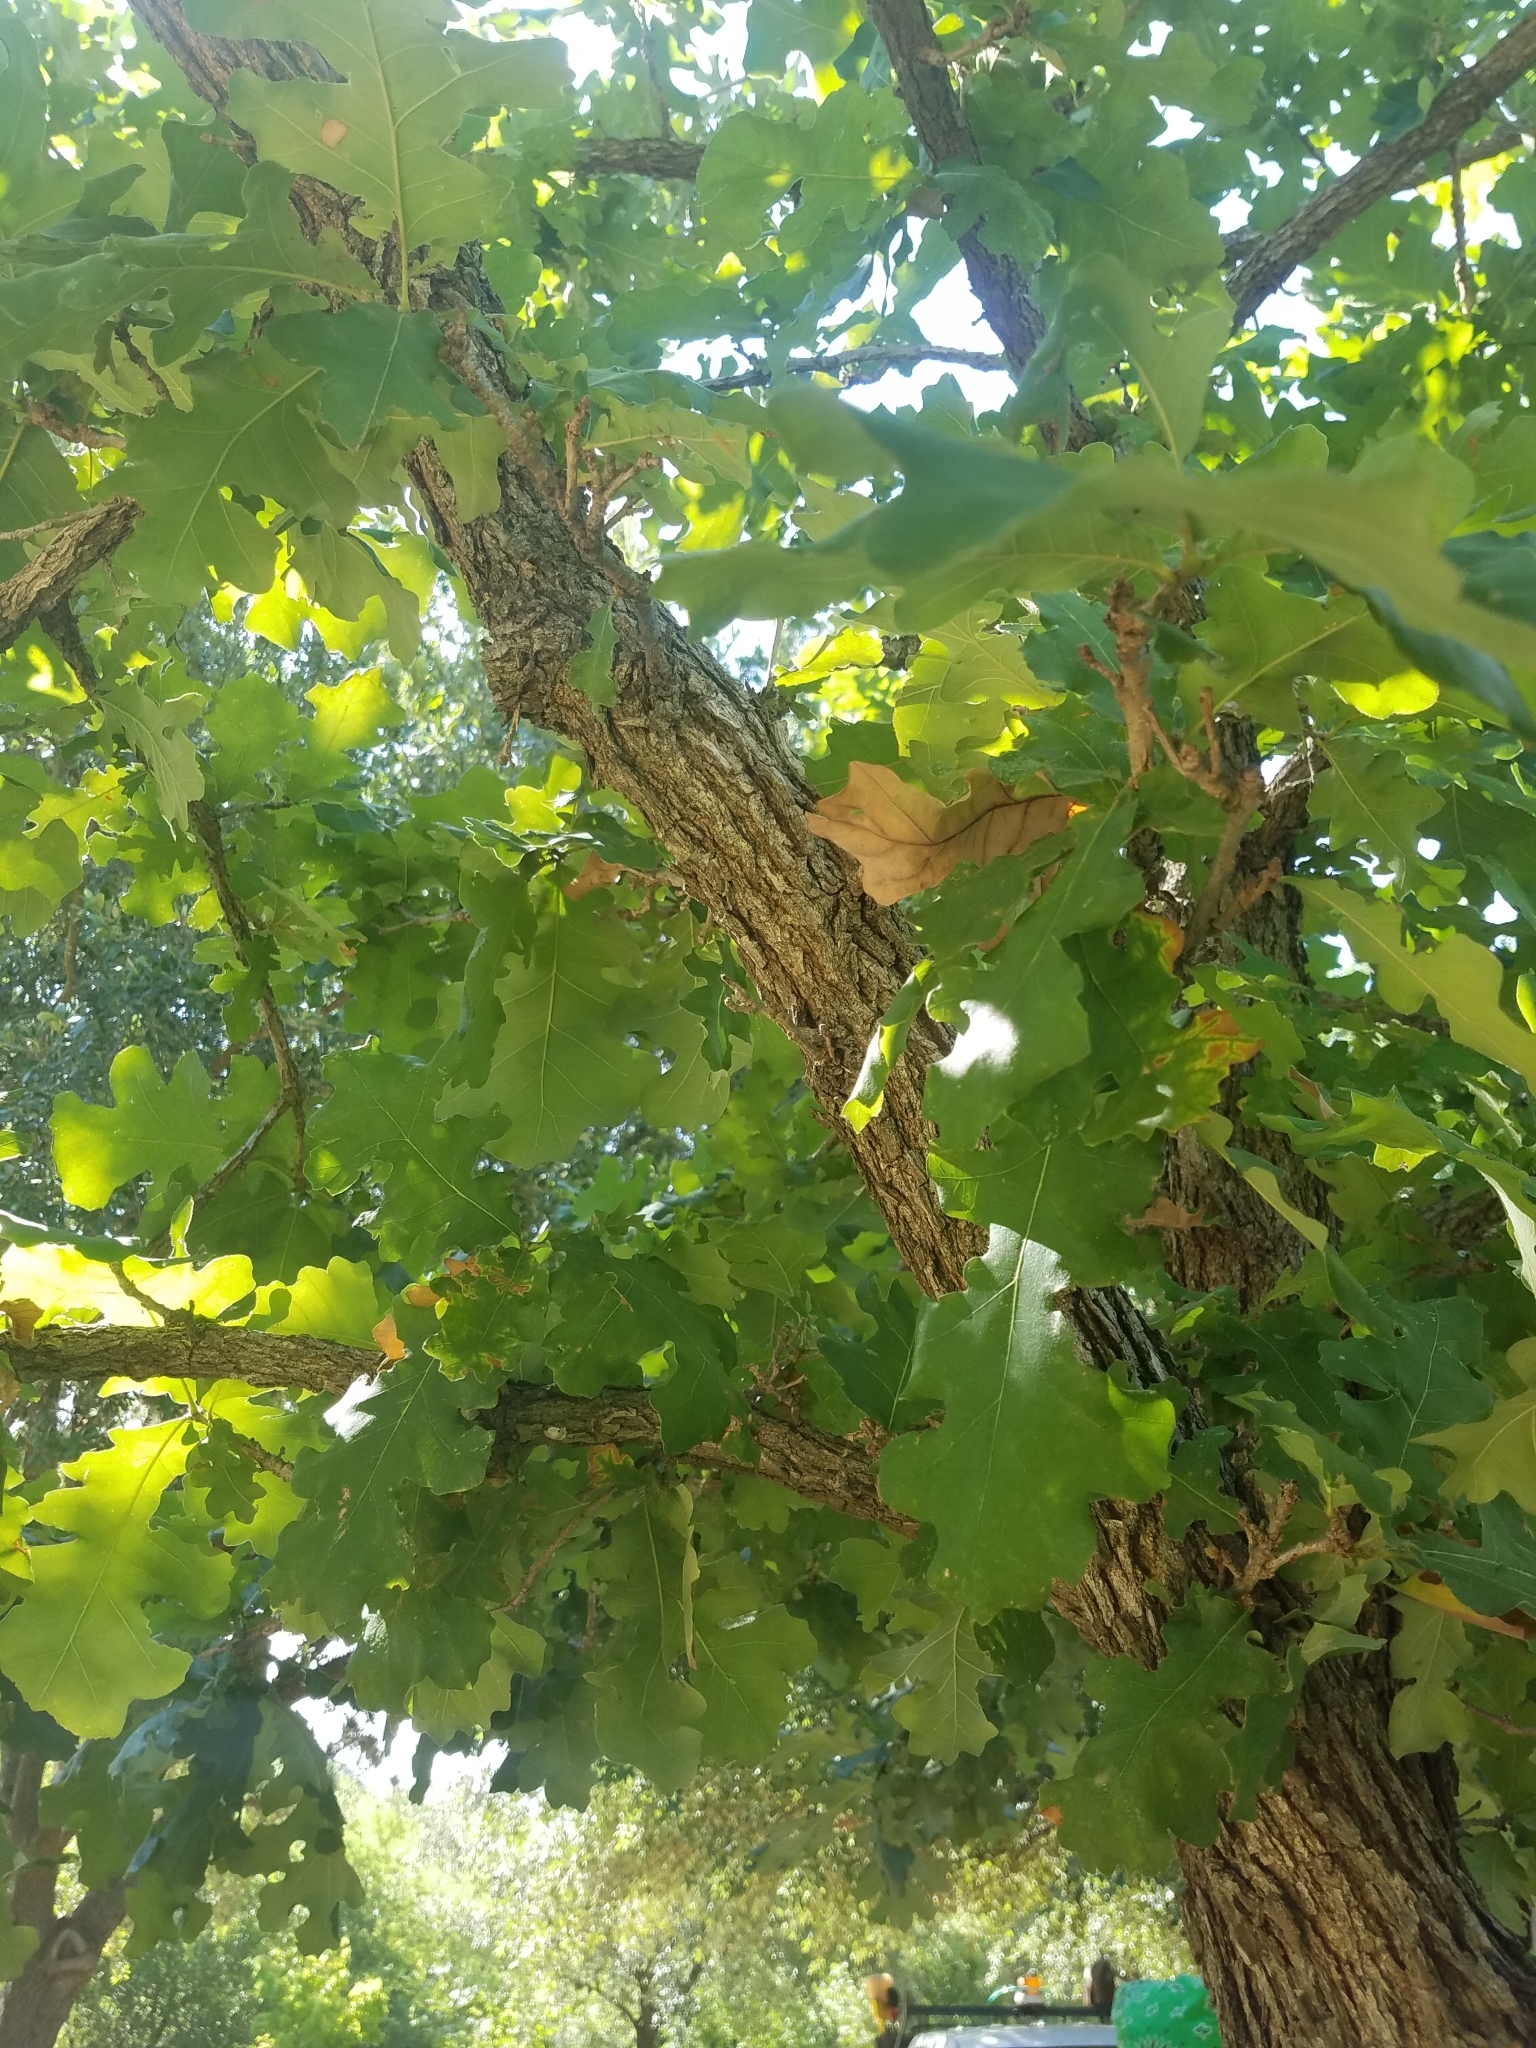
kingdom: Plantae
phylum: Tracheophyta
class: Magnoliopsida
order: Fagales
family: Fagaceae
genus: Quercus
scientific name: Quercus macrocarpa
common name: Bur oak
